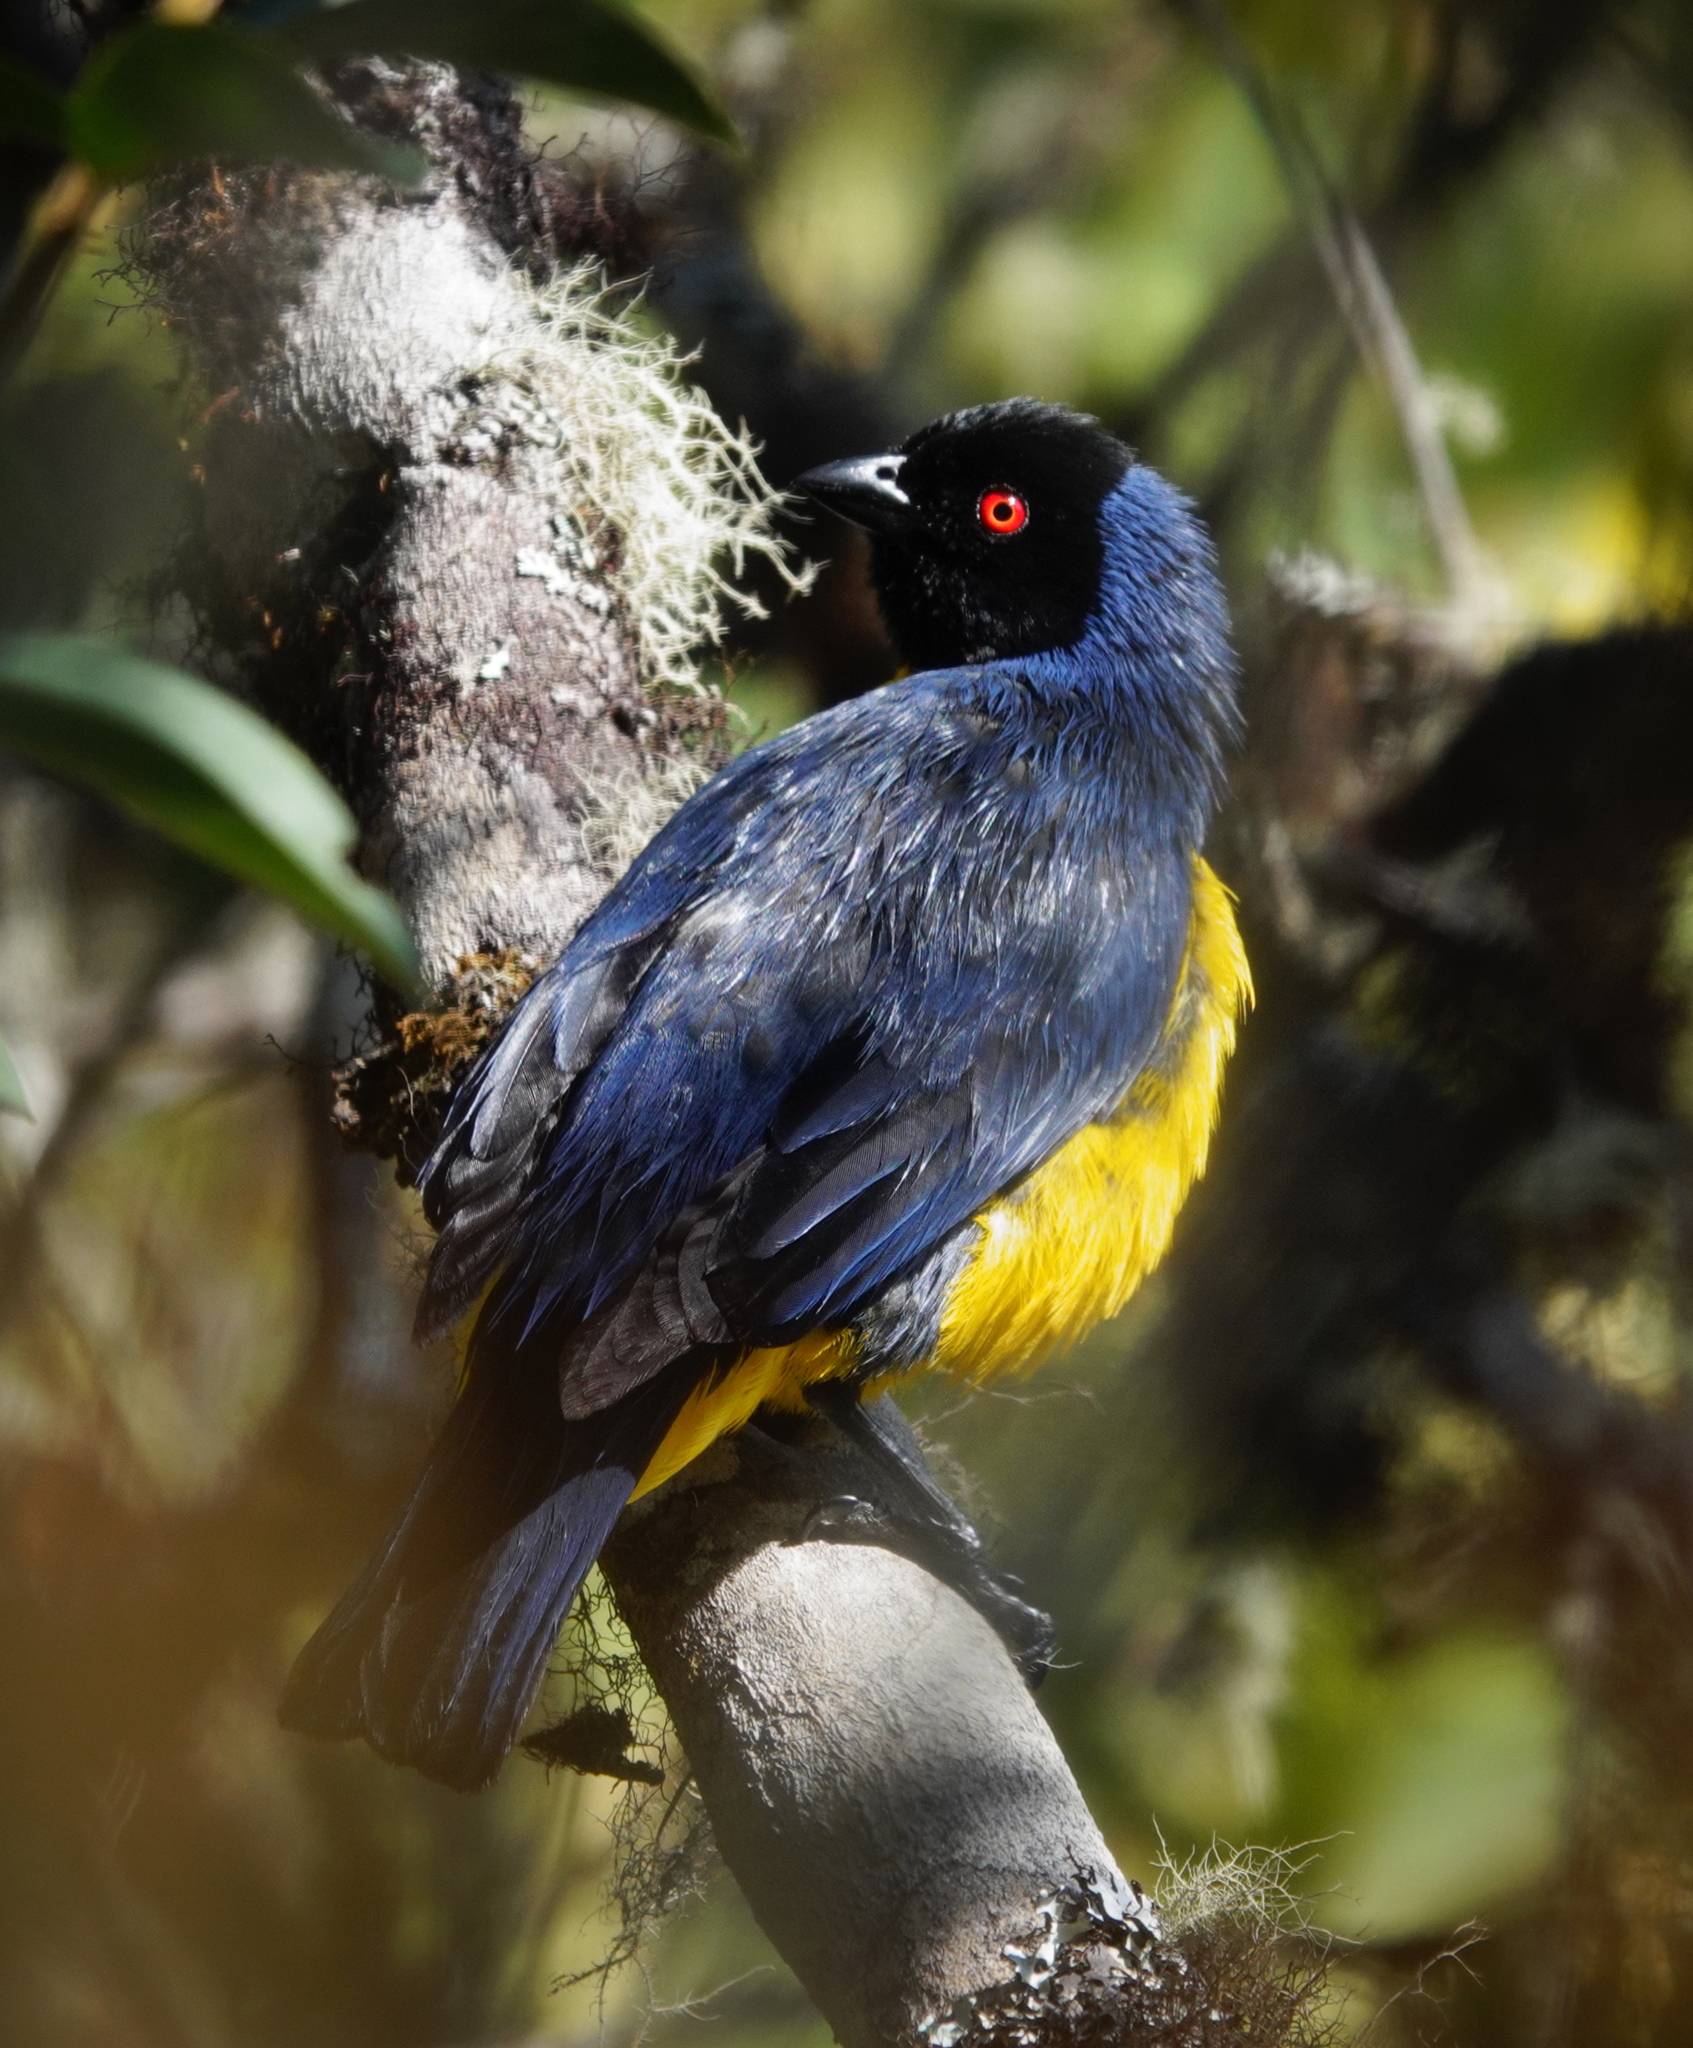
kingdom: Animalia
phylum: Chordata
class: Aves
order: Passeriformes
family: Thraupidae
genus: Buthraupis
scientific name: Buthraupis montana
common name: Hooded mountain tanager
